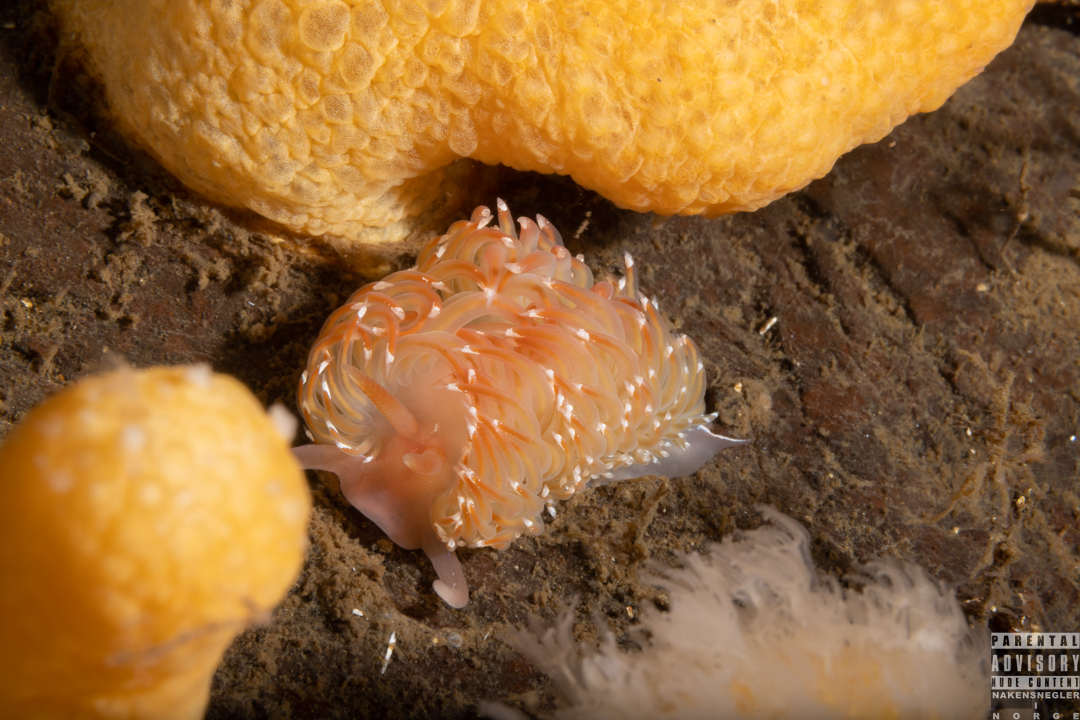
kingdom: Animalia
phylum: Mollusca
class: Gastropoda
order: Nudibranchia
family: Facelinidae
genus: Facelina
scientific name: Facelina bostoniensis
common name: Boston facelina
